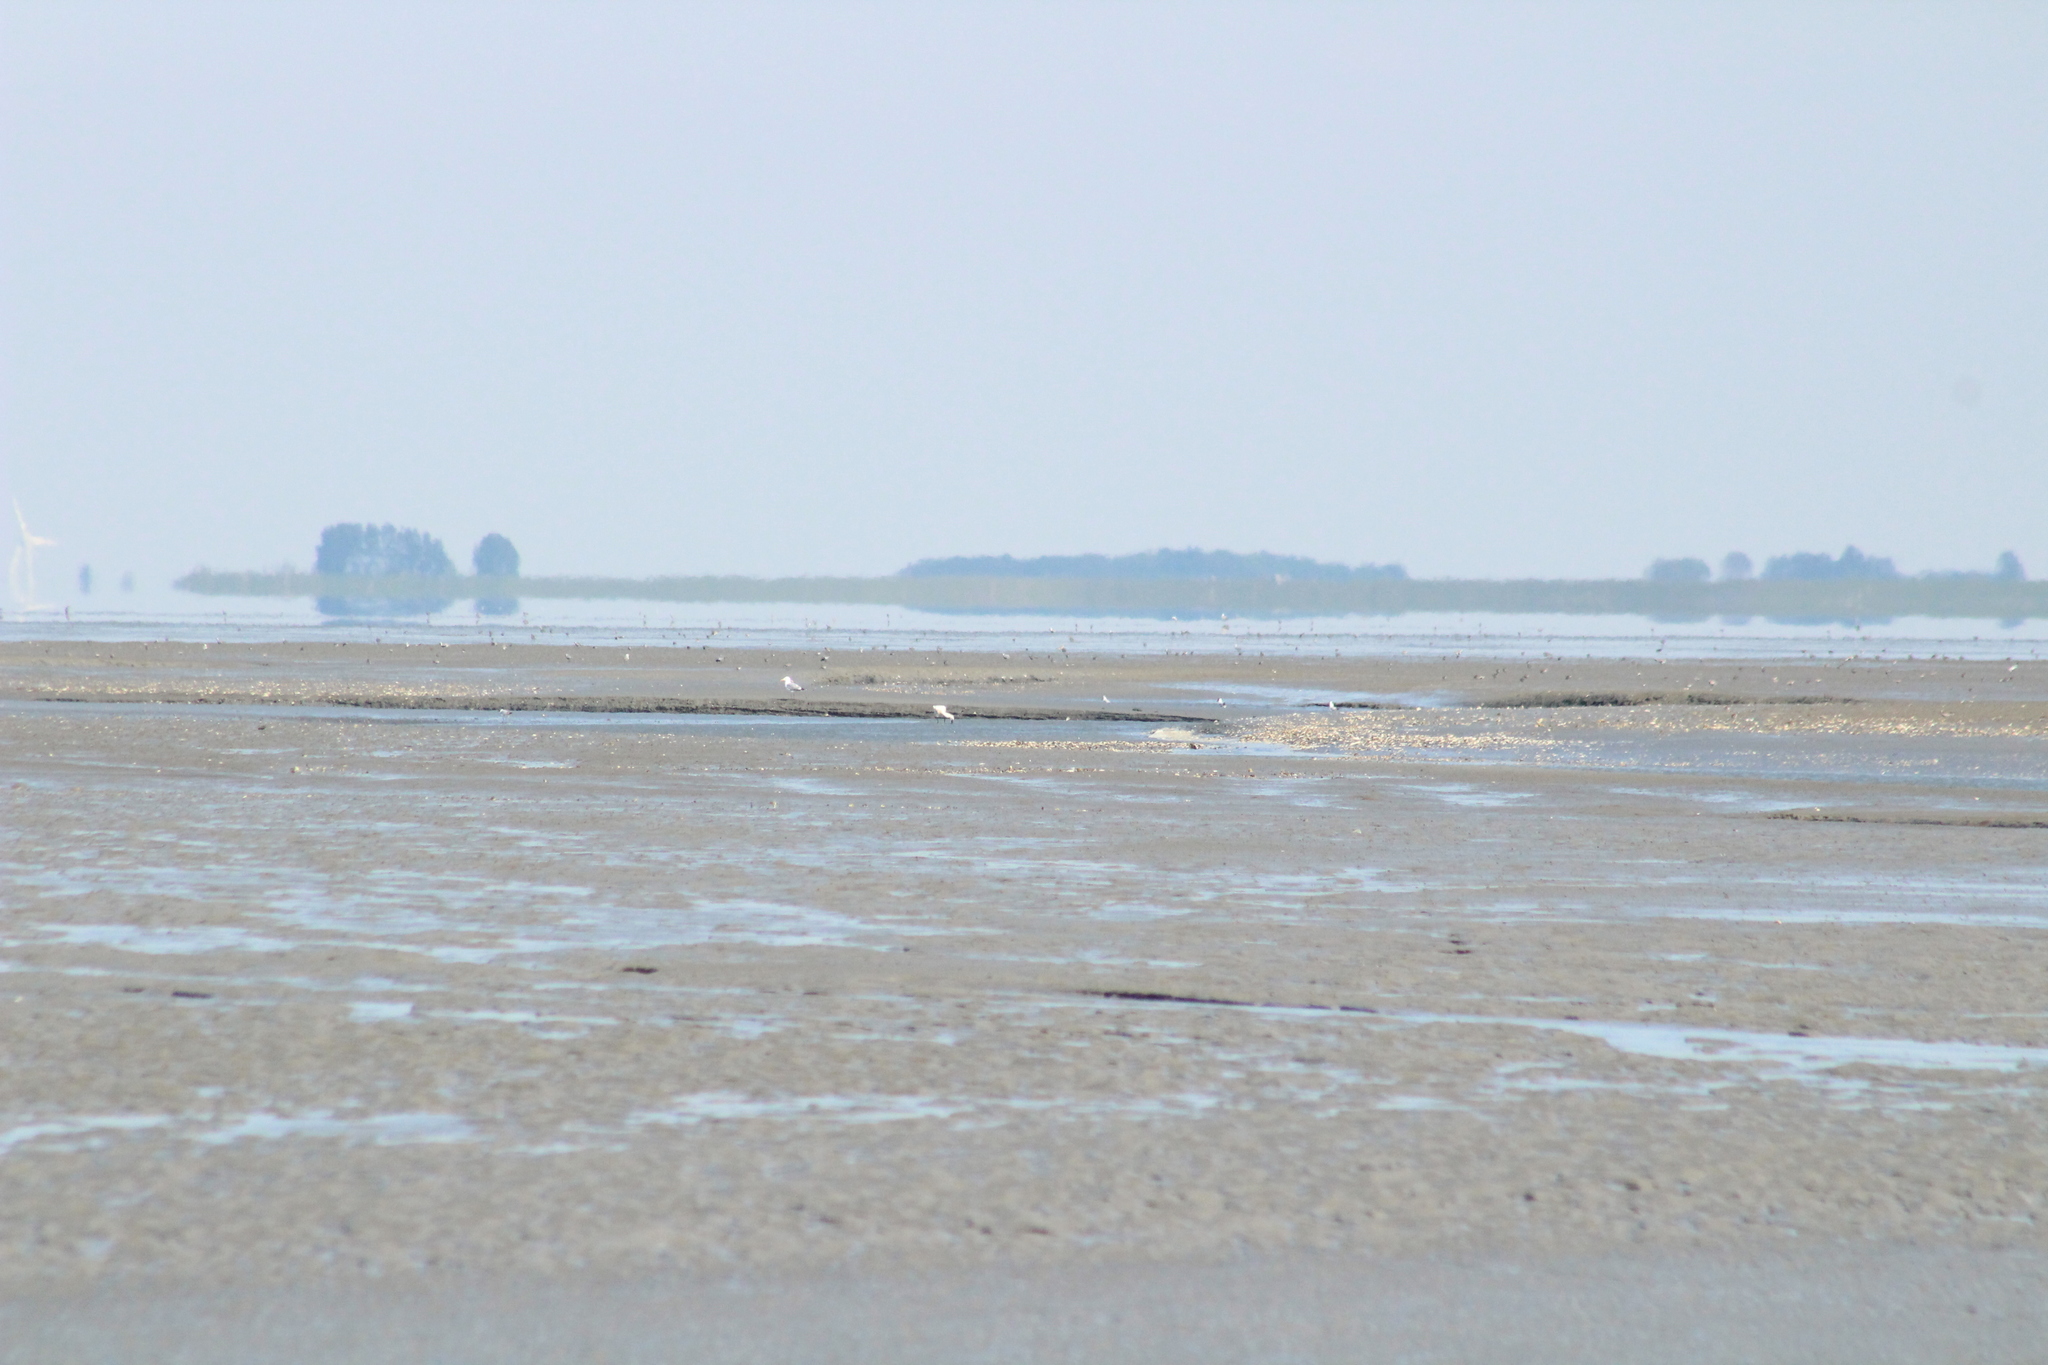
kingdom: Animalia
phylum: Chordata
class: Aves
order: Pelecaniformes
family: Threskiornithidae
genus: Platalea
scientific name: Platalea leucorodia
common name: Eurasian spoonbill
